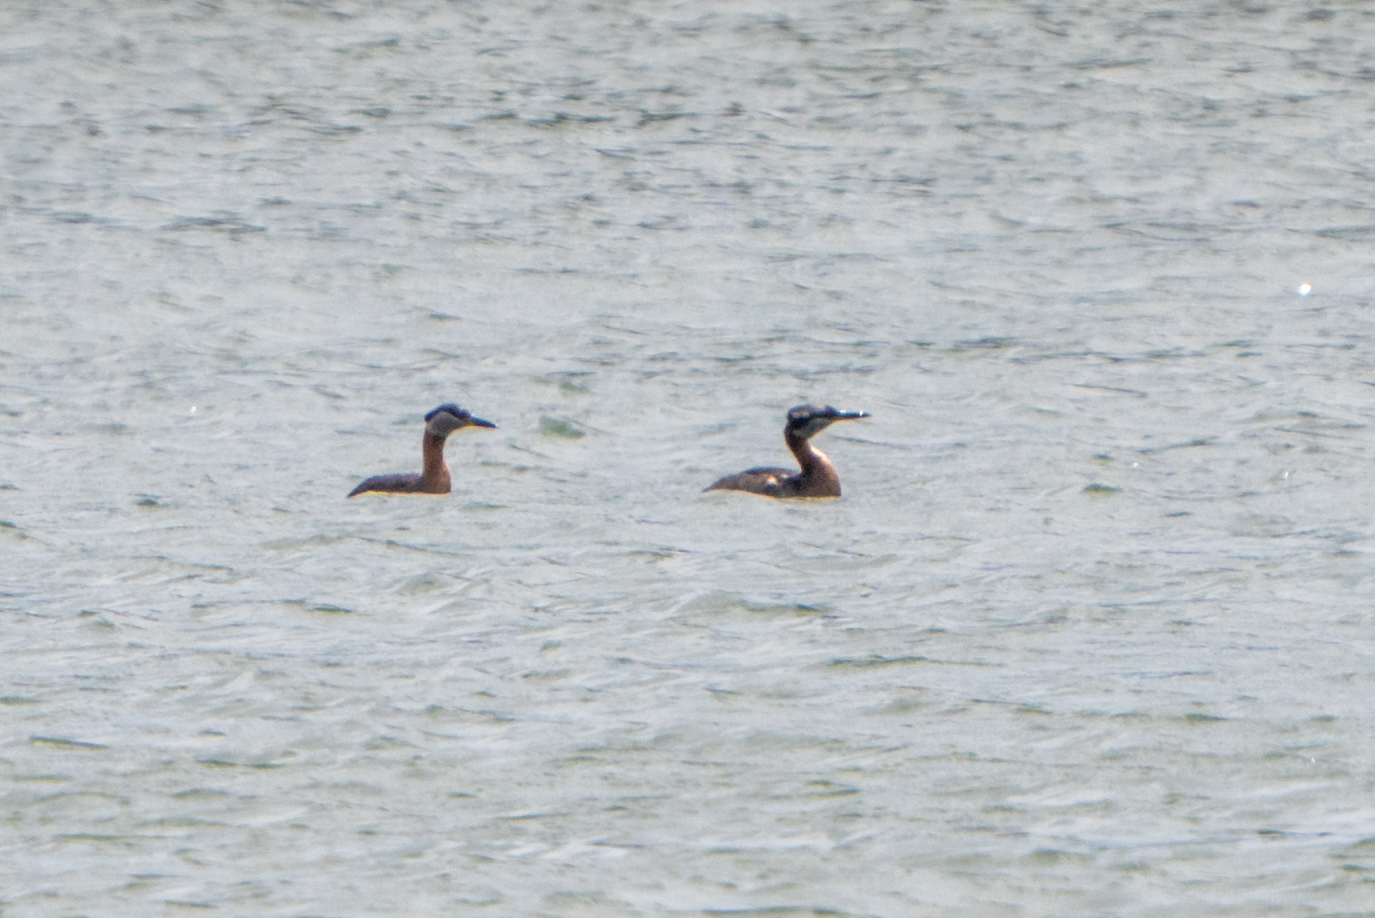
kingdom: Animalia
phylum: Chordata
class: Aves
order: Podicipediformes
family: Podicipedidae
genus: Podiceps
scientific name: Podiceps grisegena
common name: Red-necked grebe
